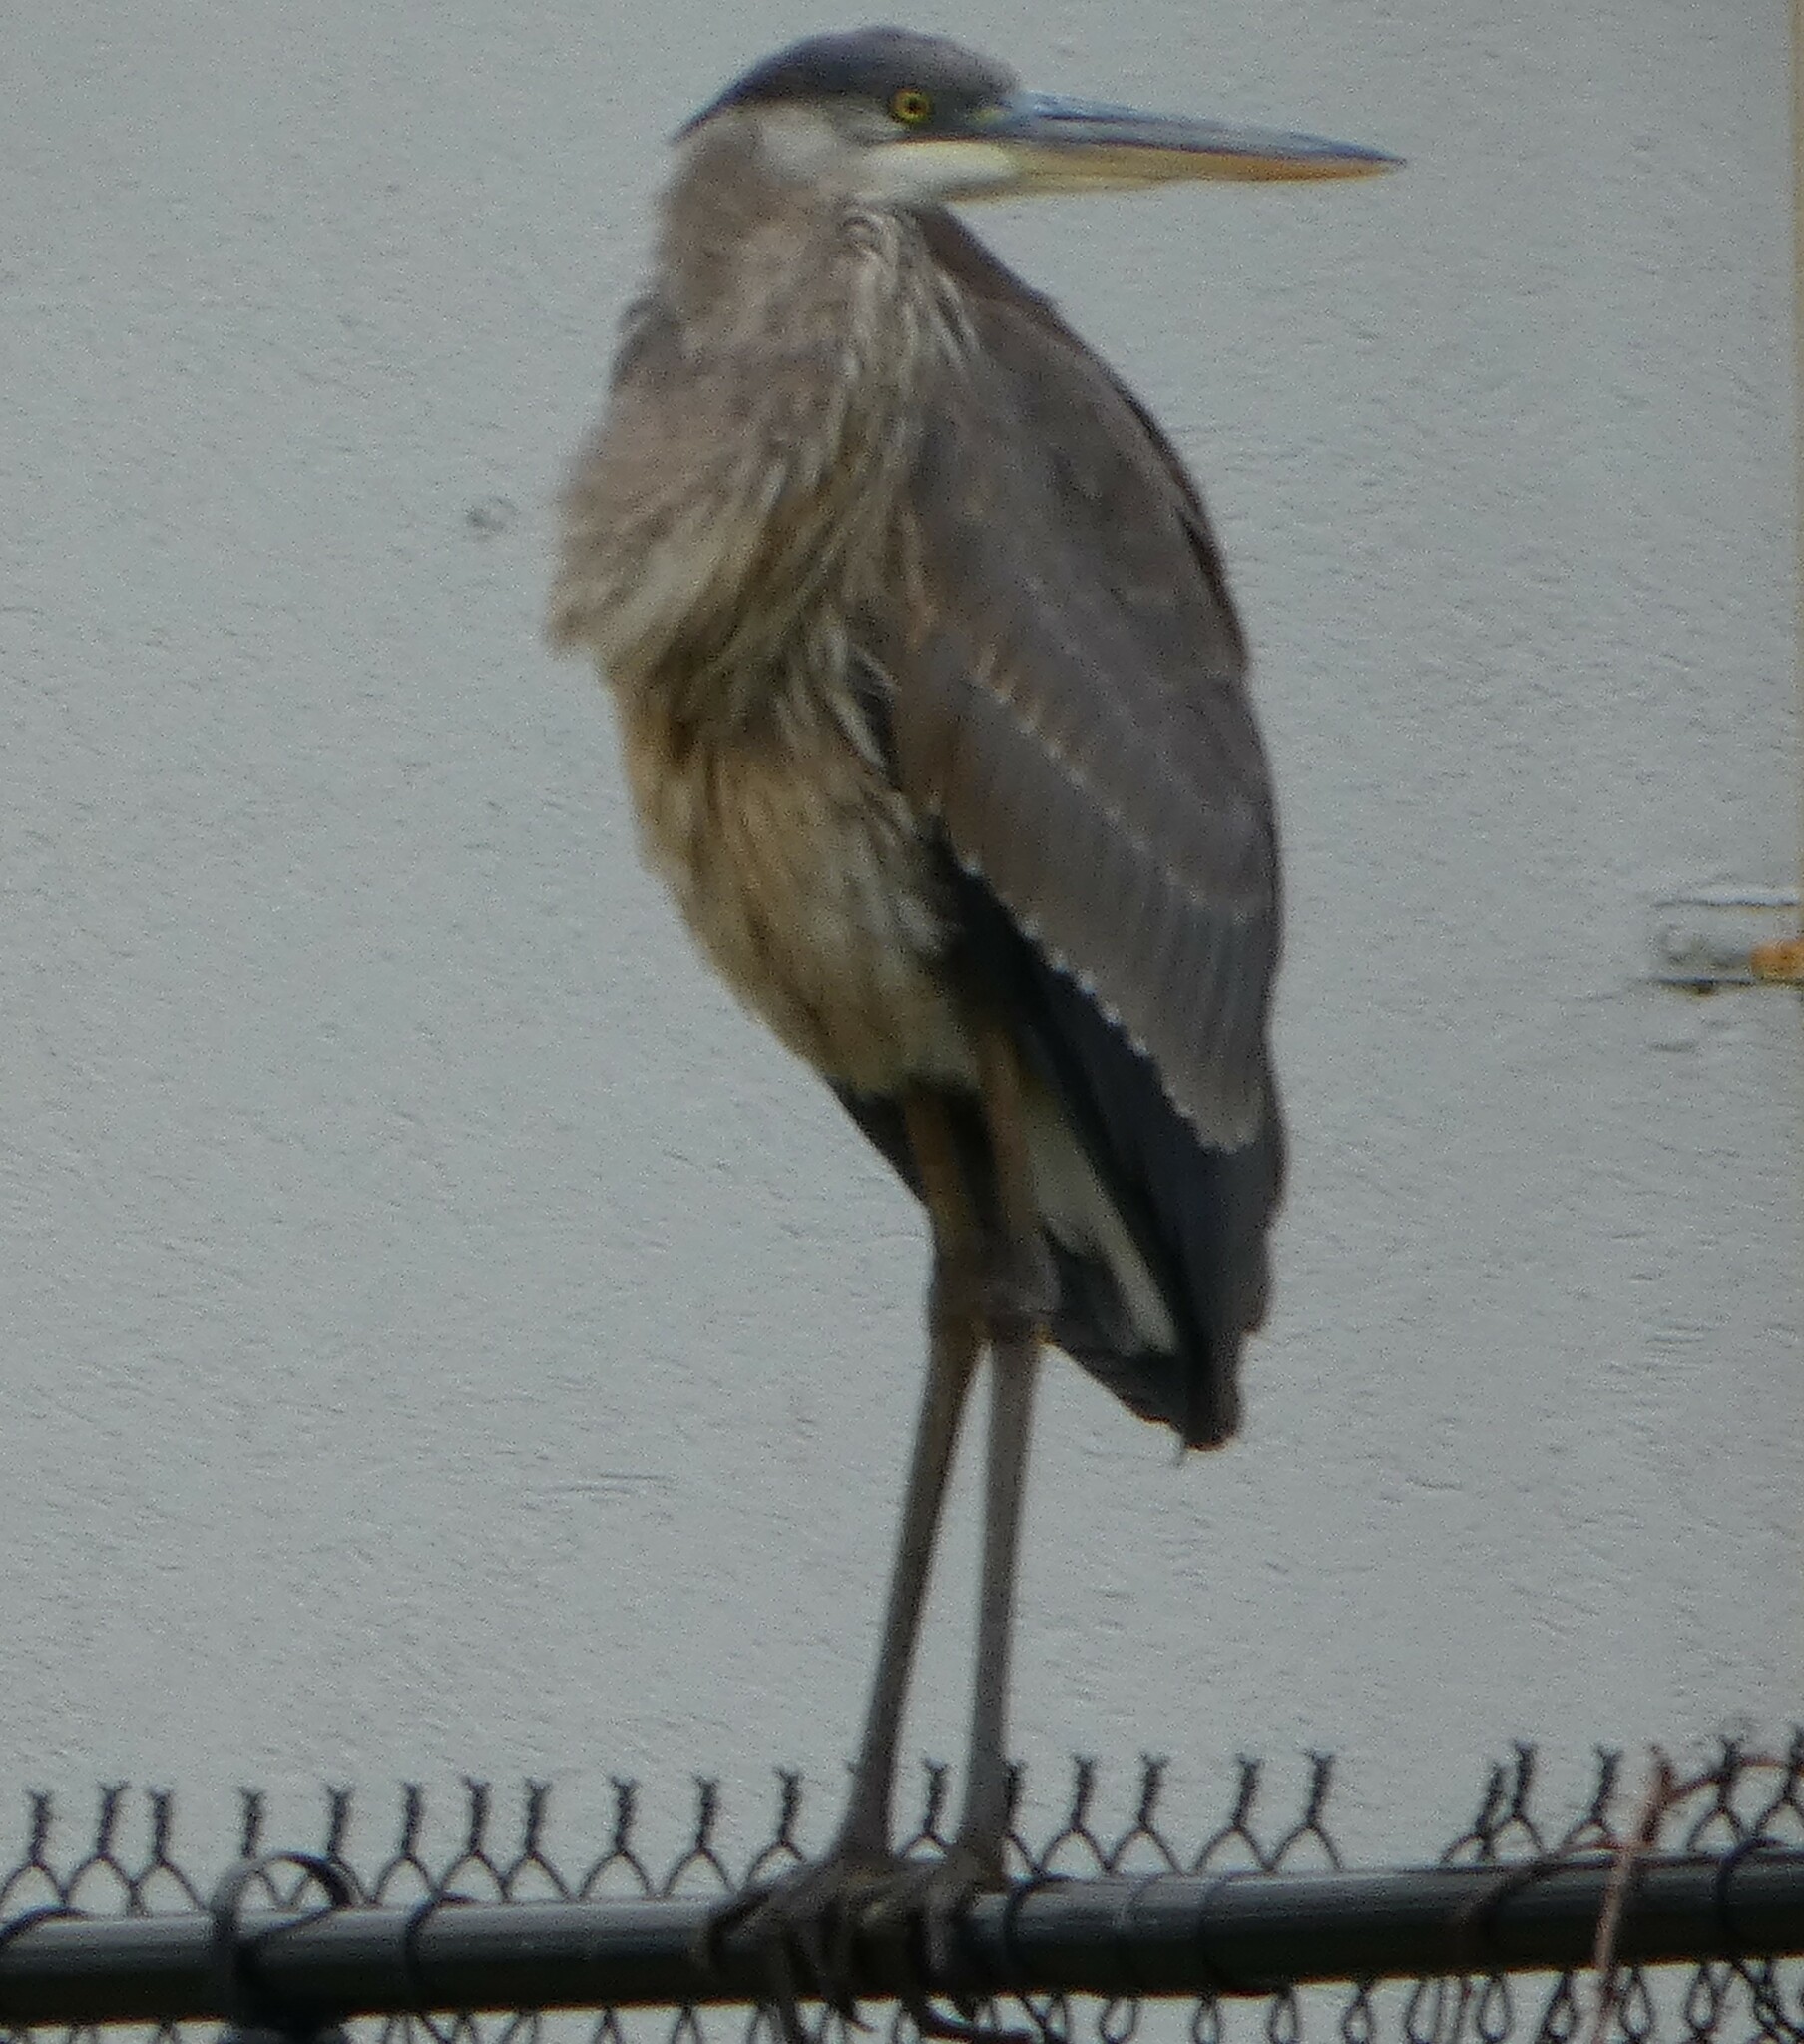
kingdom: Animalia
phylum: Chordata
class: Aves
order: Pelecaniformes
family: Ardeidae
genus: Ardea
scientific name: Ardea herodias
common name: Great blue heron
